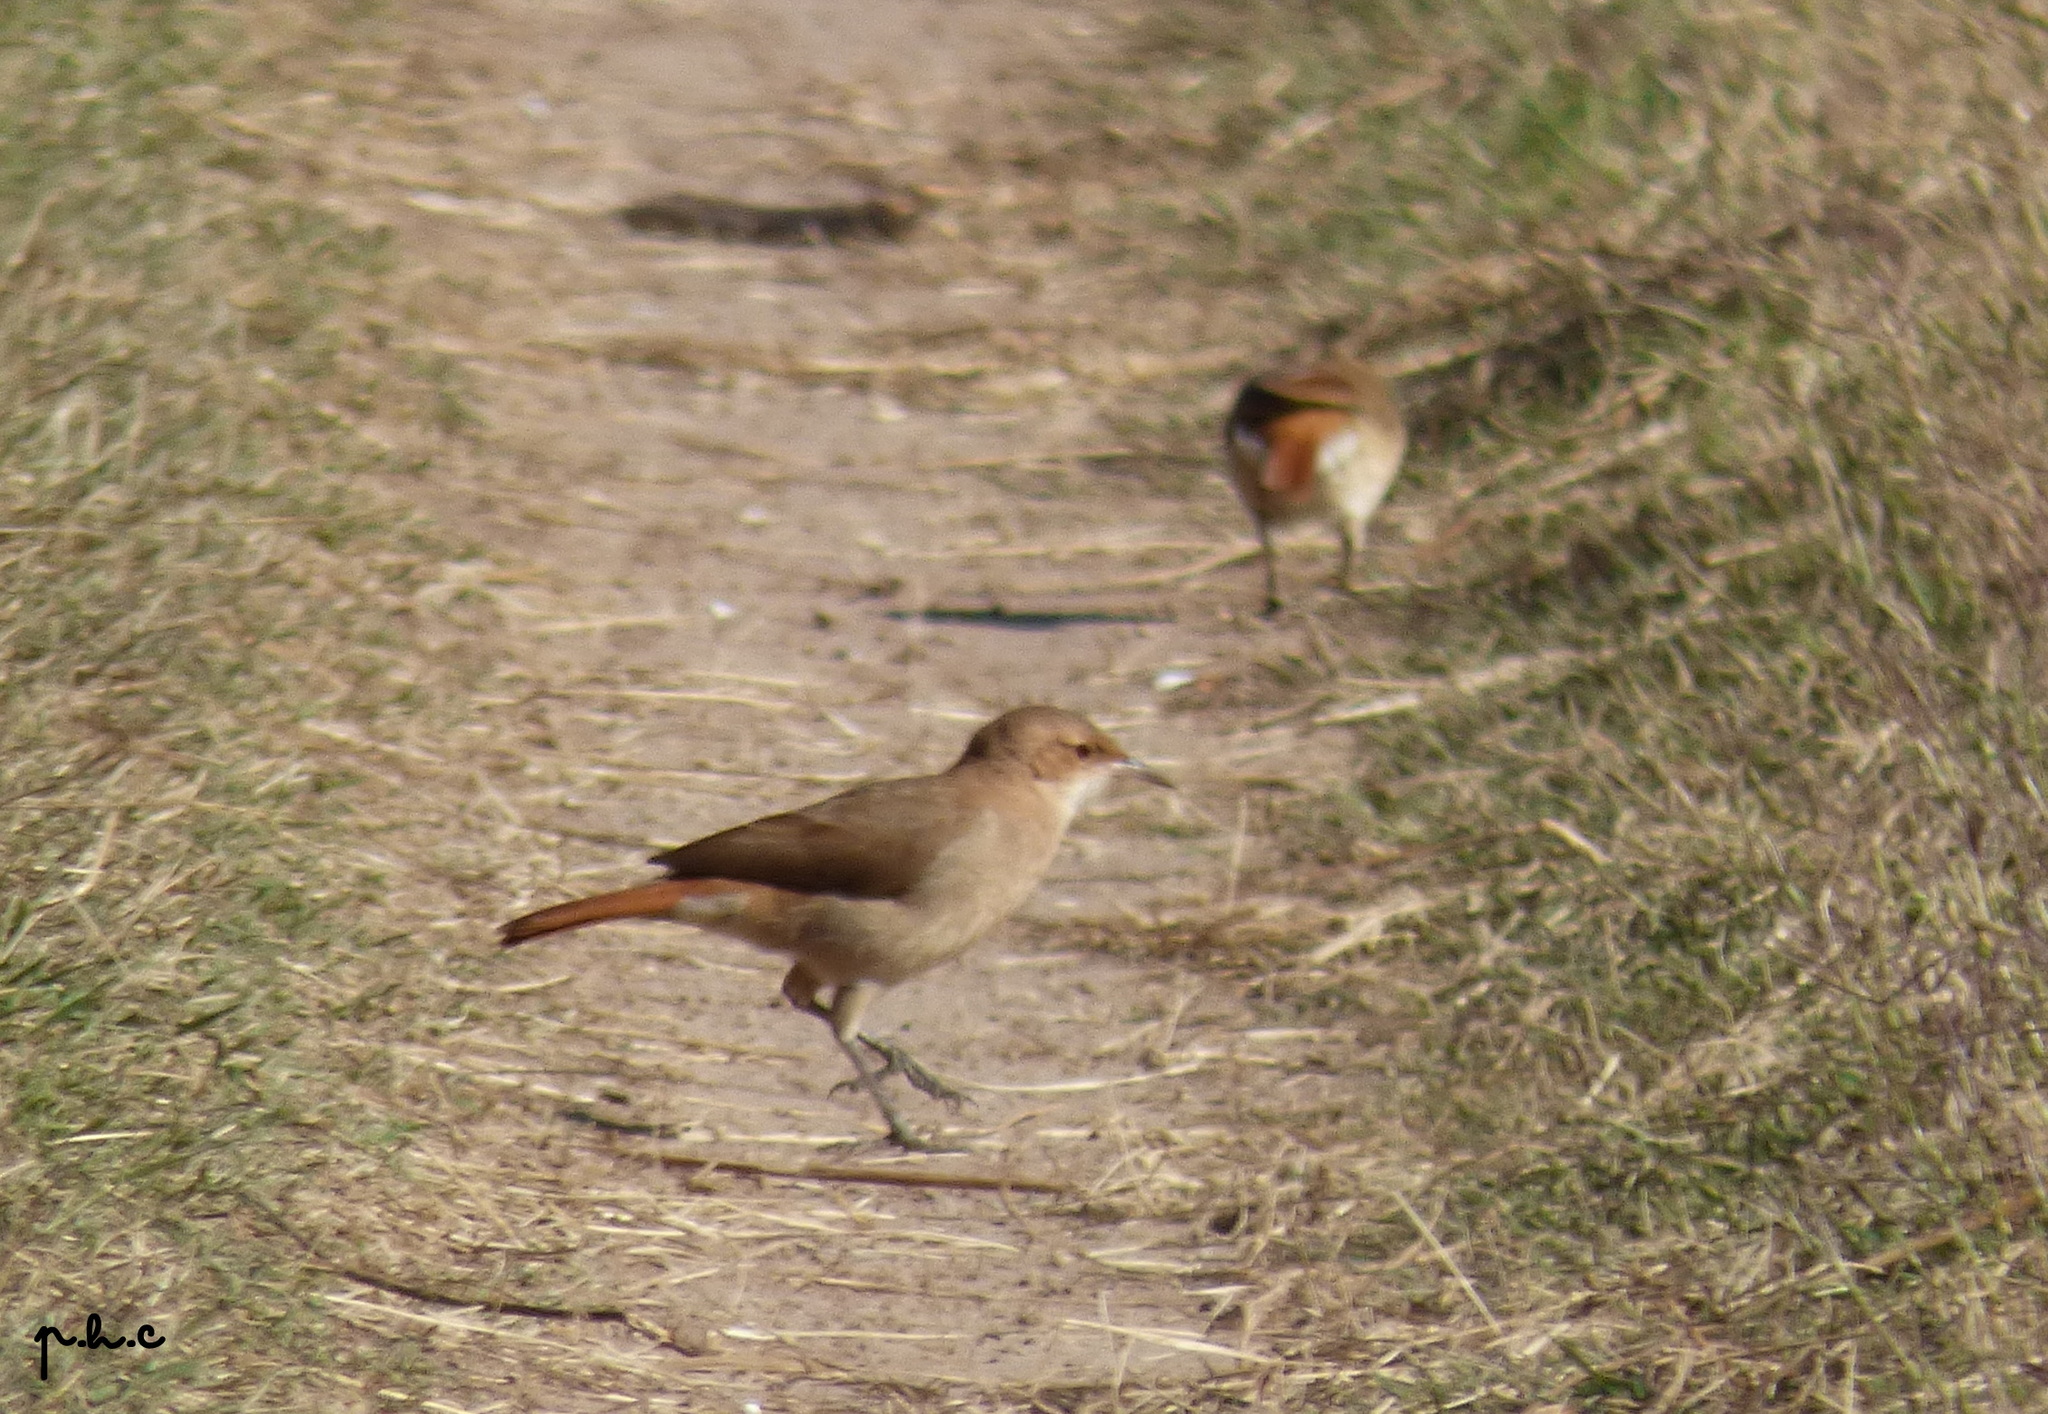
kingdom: Animalia
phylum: Chordata
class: Aves
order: Passeriformes
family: Furnariidae
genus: Furnarius
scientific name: Furnarius rufus
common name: Rufous hornero
